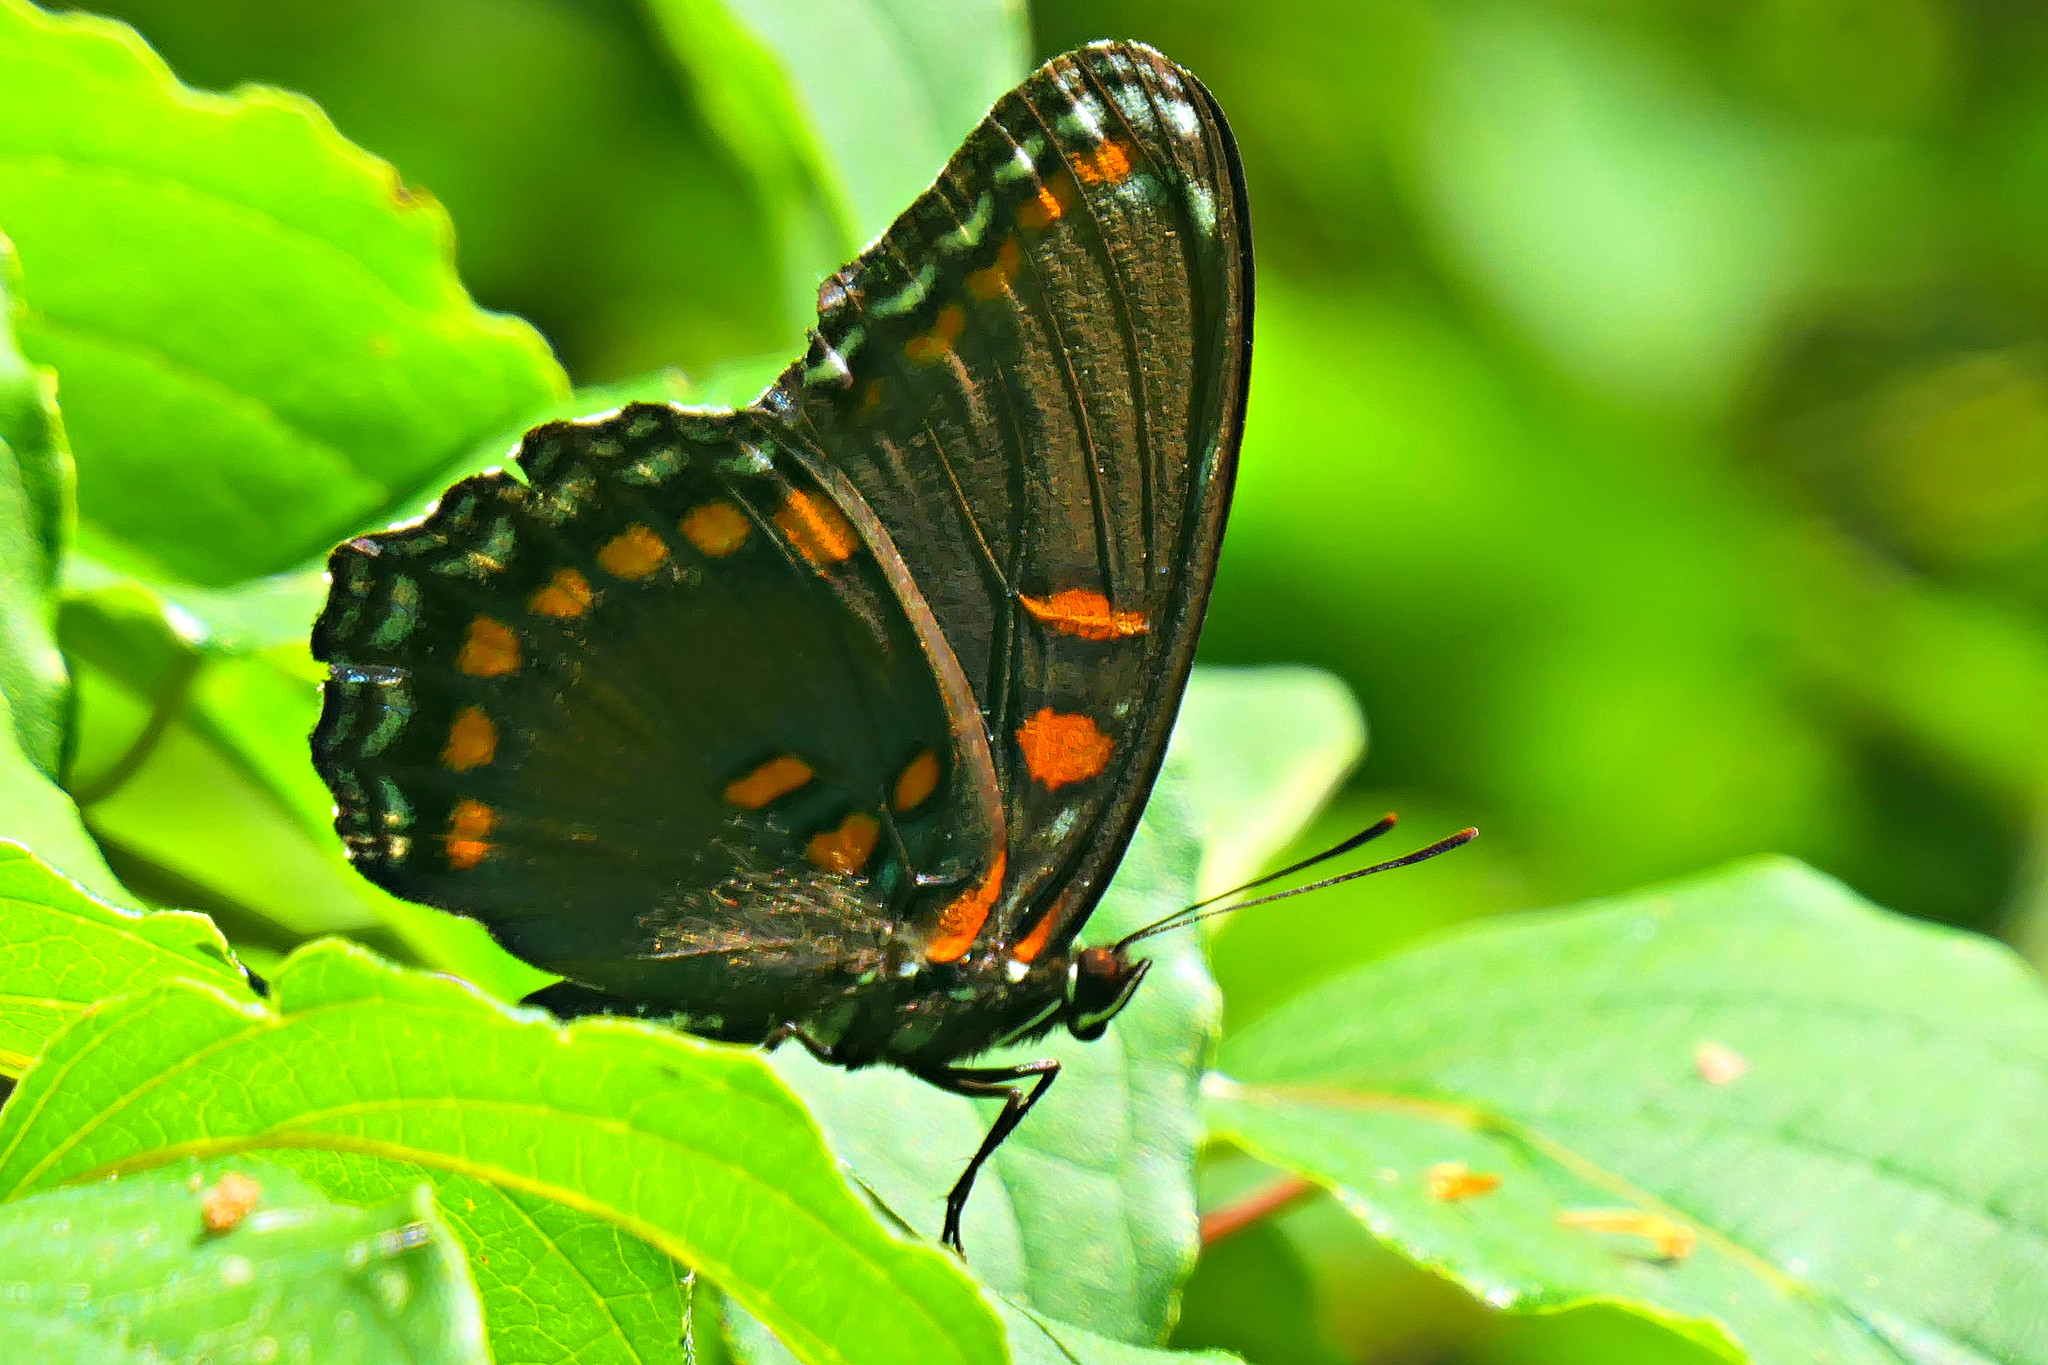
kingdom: Animalia
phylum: Arthropoda
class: Insecta
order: Lepidoptera
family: Nymphalidae
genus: Limenitis
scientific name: Limenitis arthemis
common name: Red-spotted admiral
